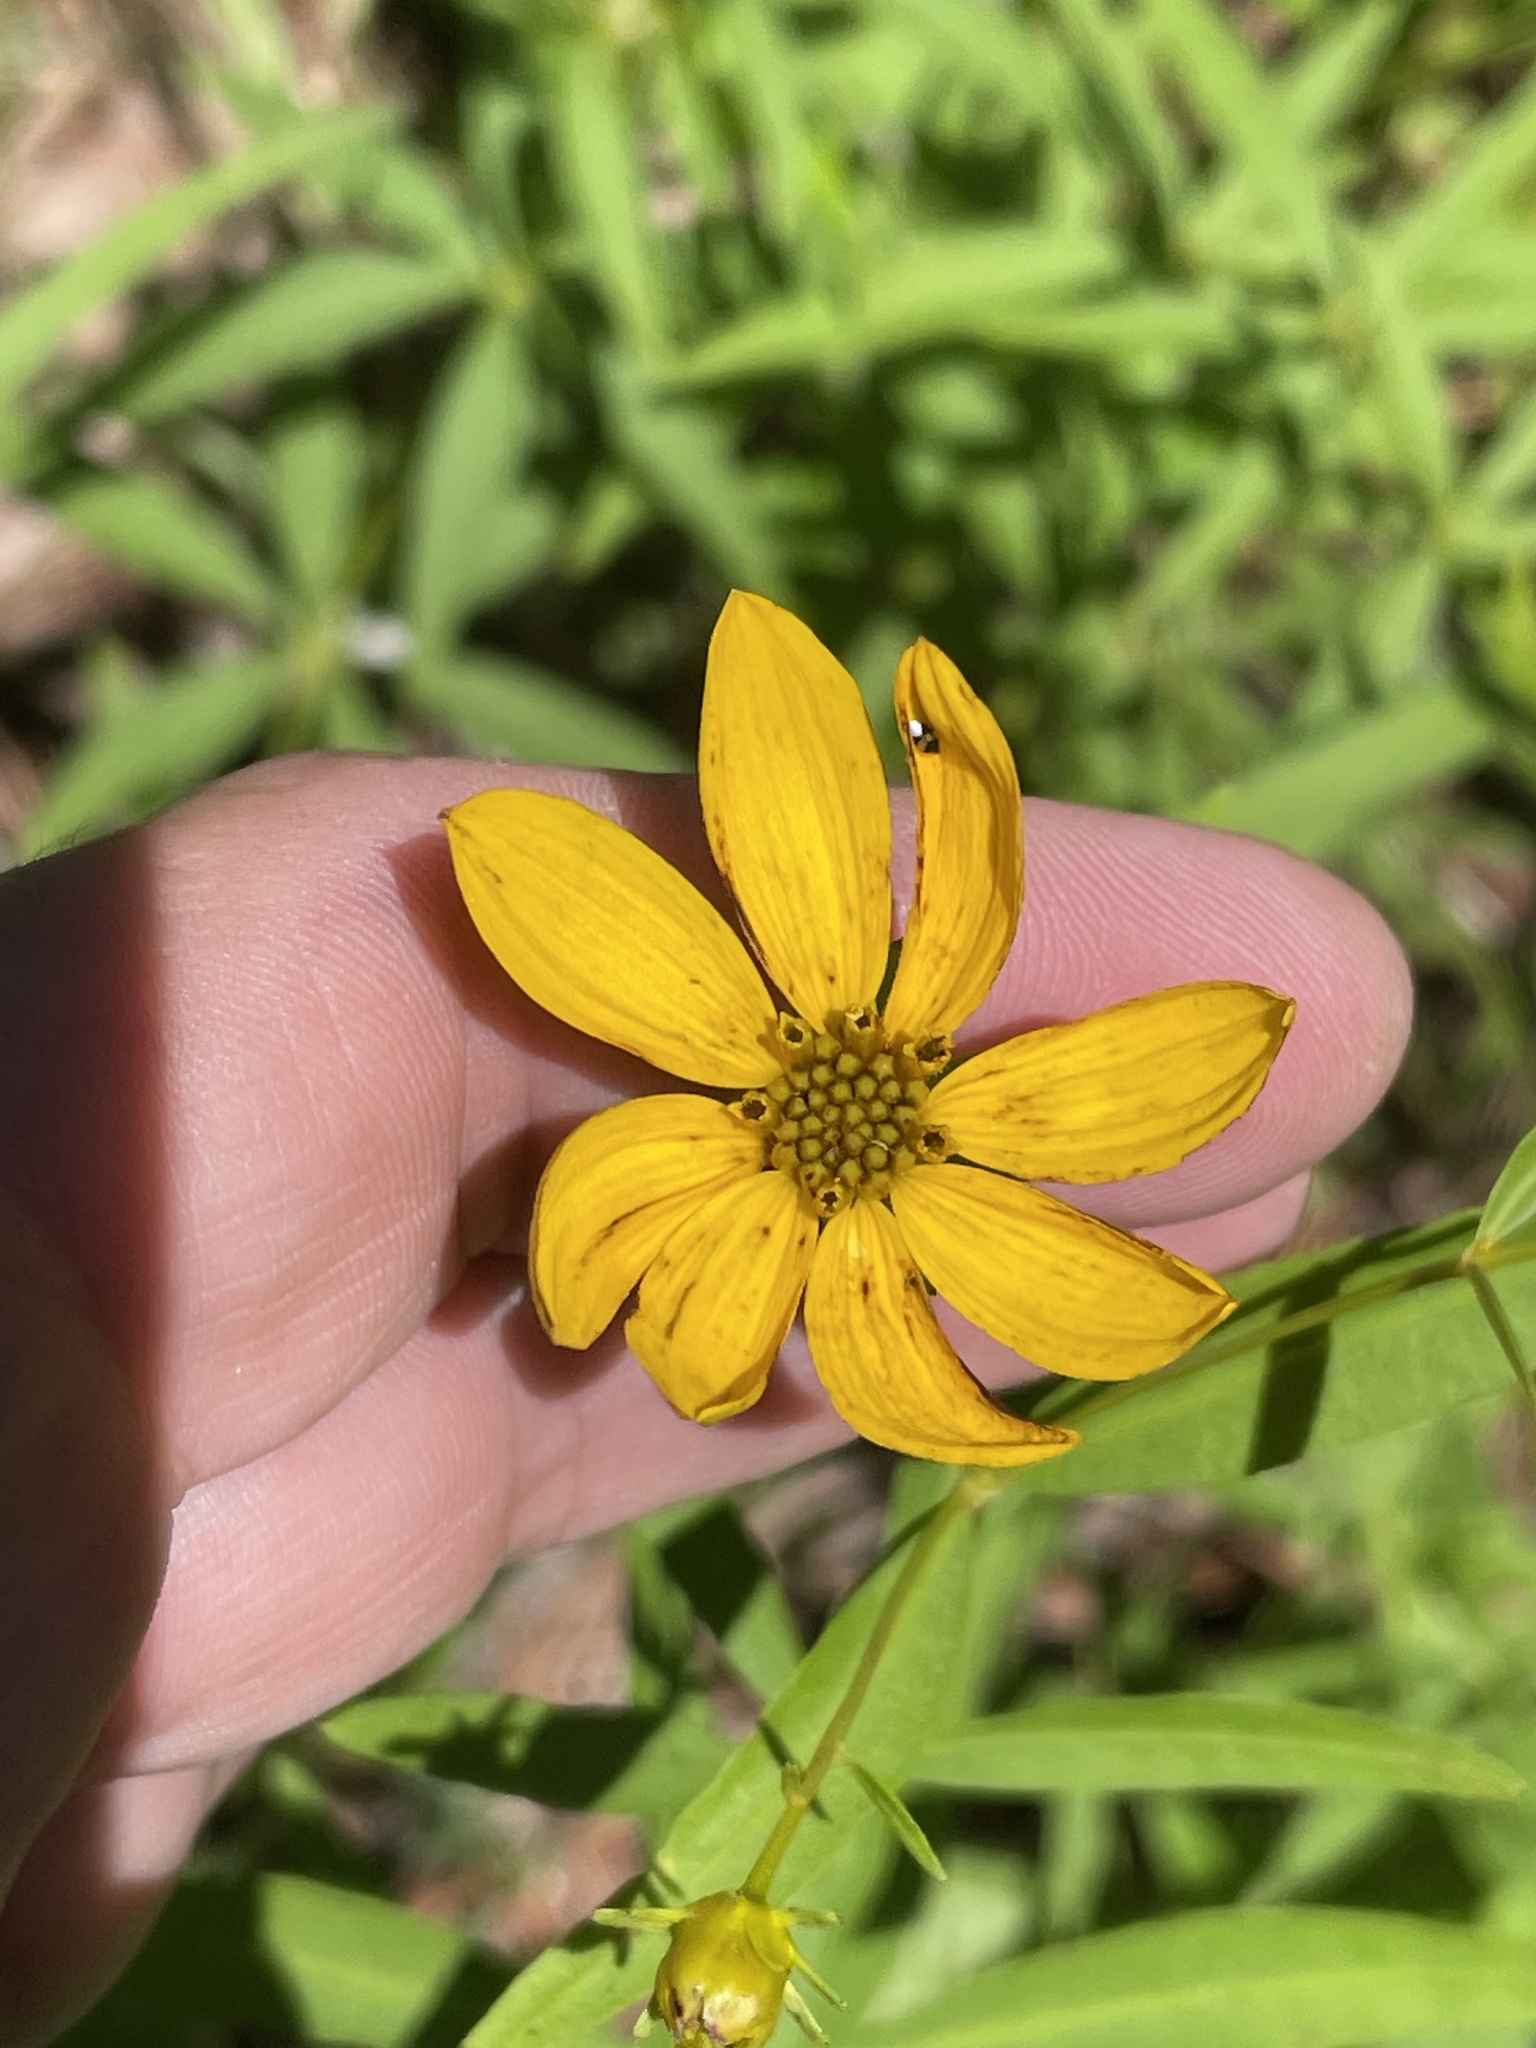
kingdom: Plantae
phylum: Tracheophyta
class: Magnoliopsida
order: Asterales
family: Asteraceae
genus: Coreopsis
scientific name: Coreopsis major
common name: Forest tickseed
